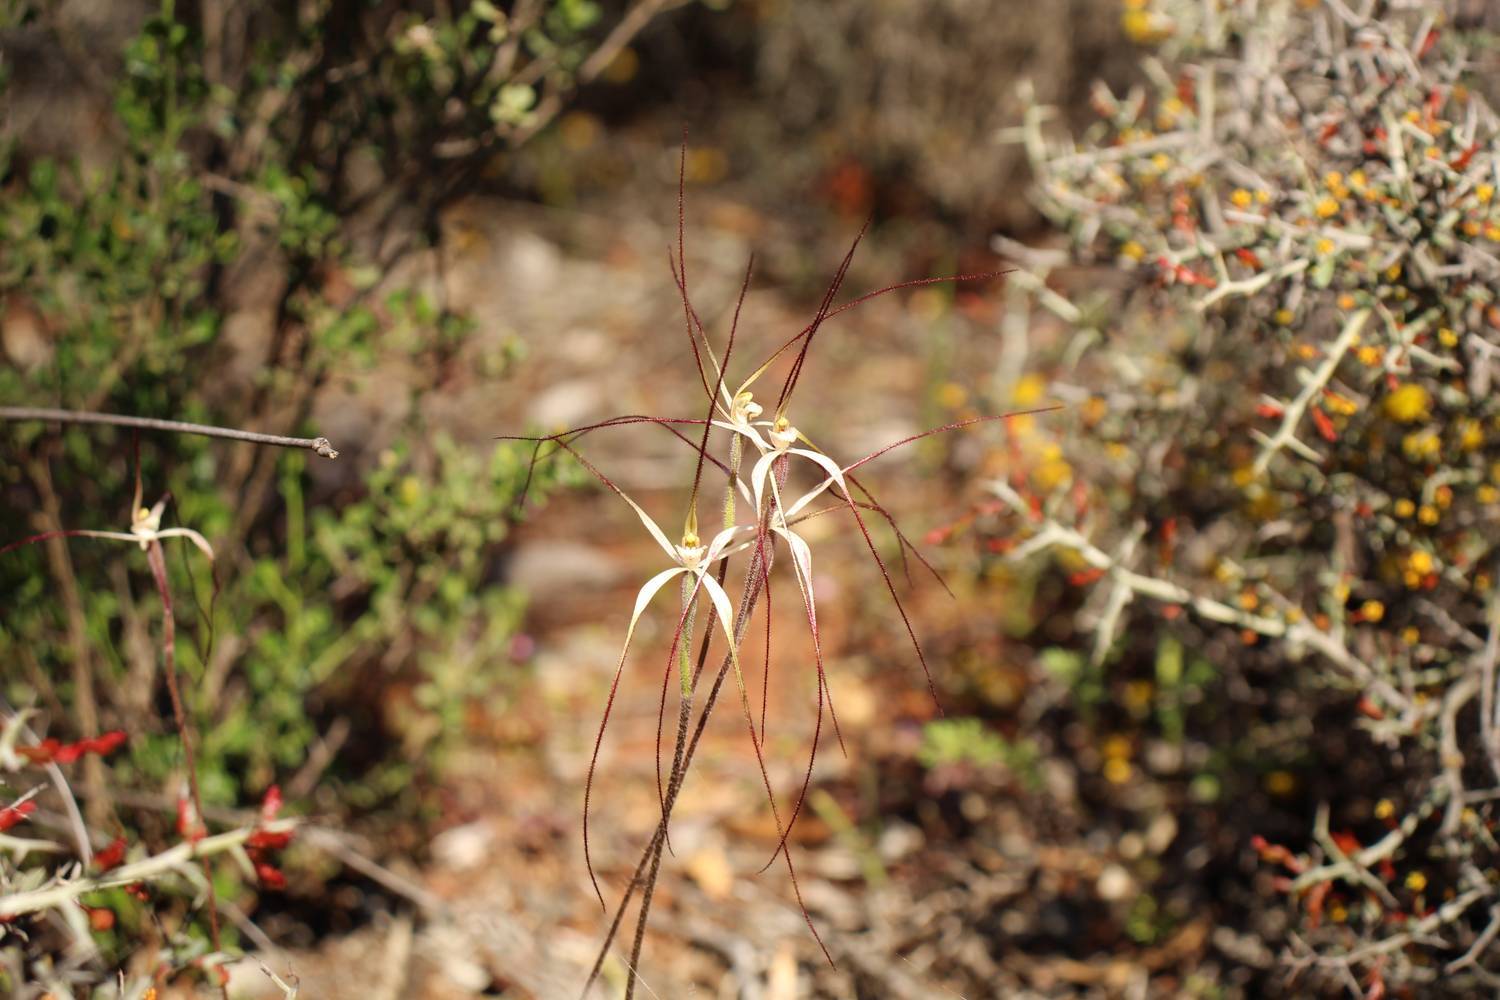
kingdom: Plantae
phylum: Tracheophyta
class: Liliopsida
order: Asparagales
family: Orchidaceae
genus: Caladenia
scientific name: Caladenia microchila
